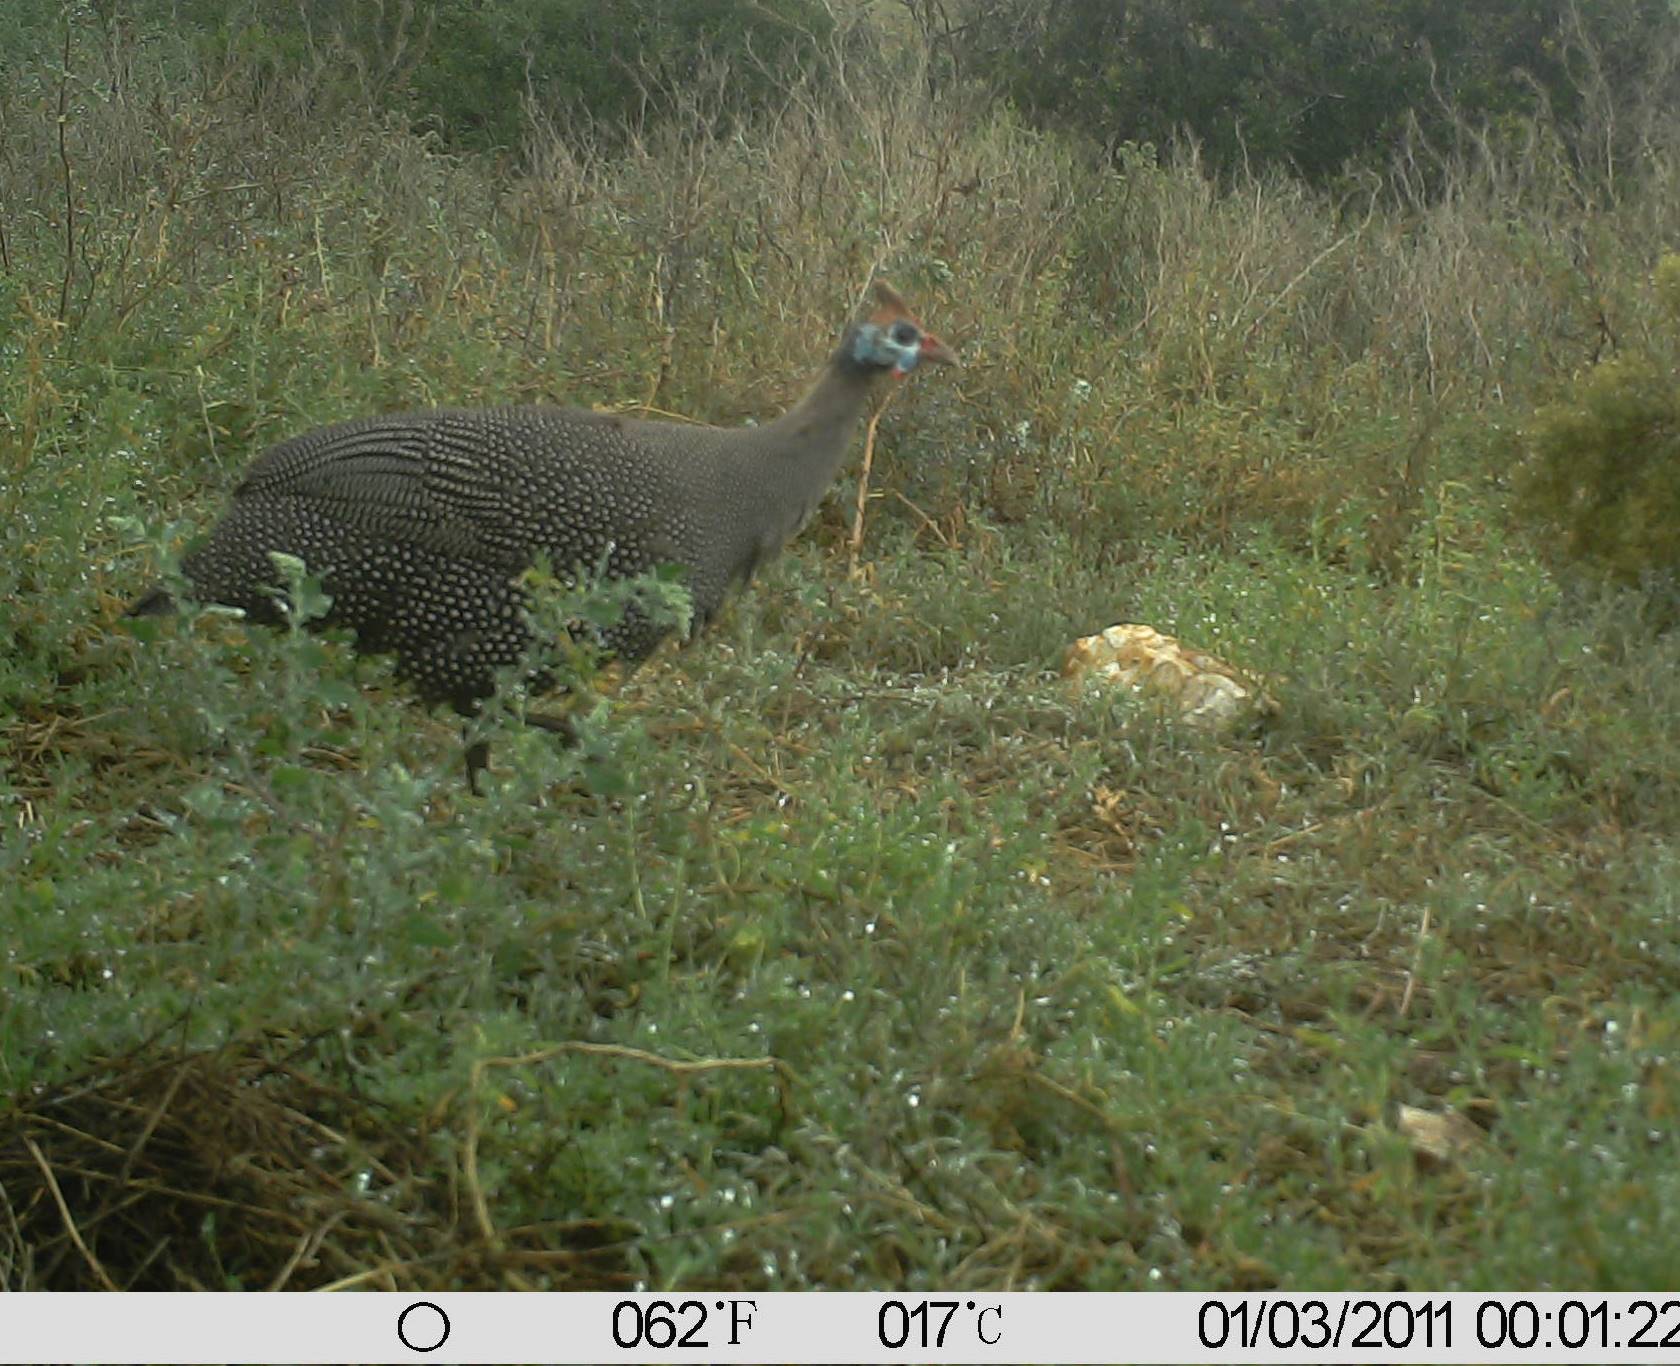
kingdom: Animalia
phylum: Chordata
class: Aves
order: Galliformes
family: Numididae
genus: Numida
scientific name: Numida meleagris
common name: Helmeted guineafowl
